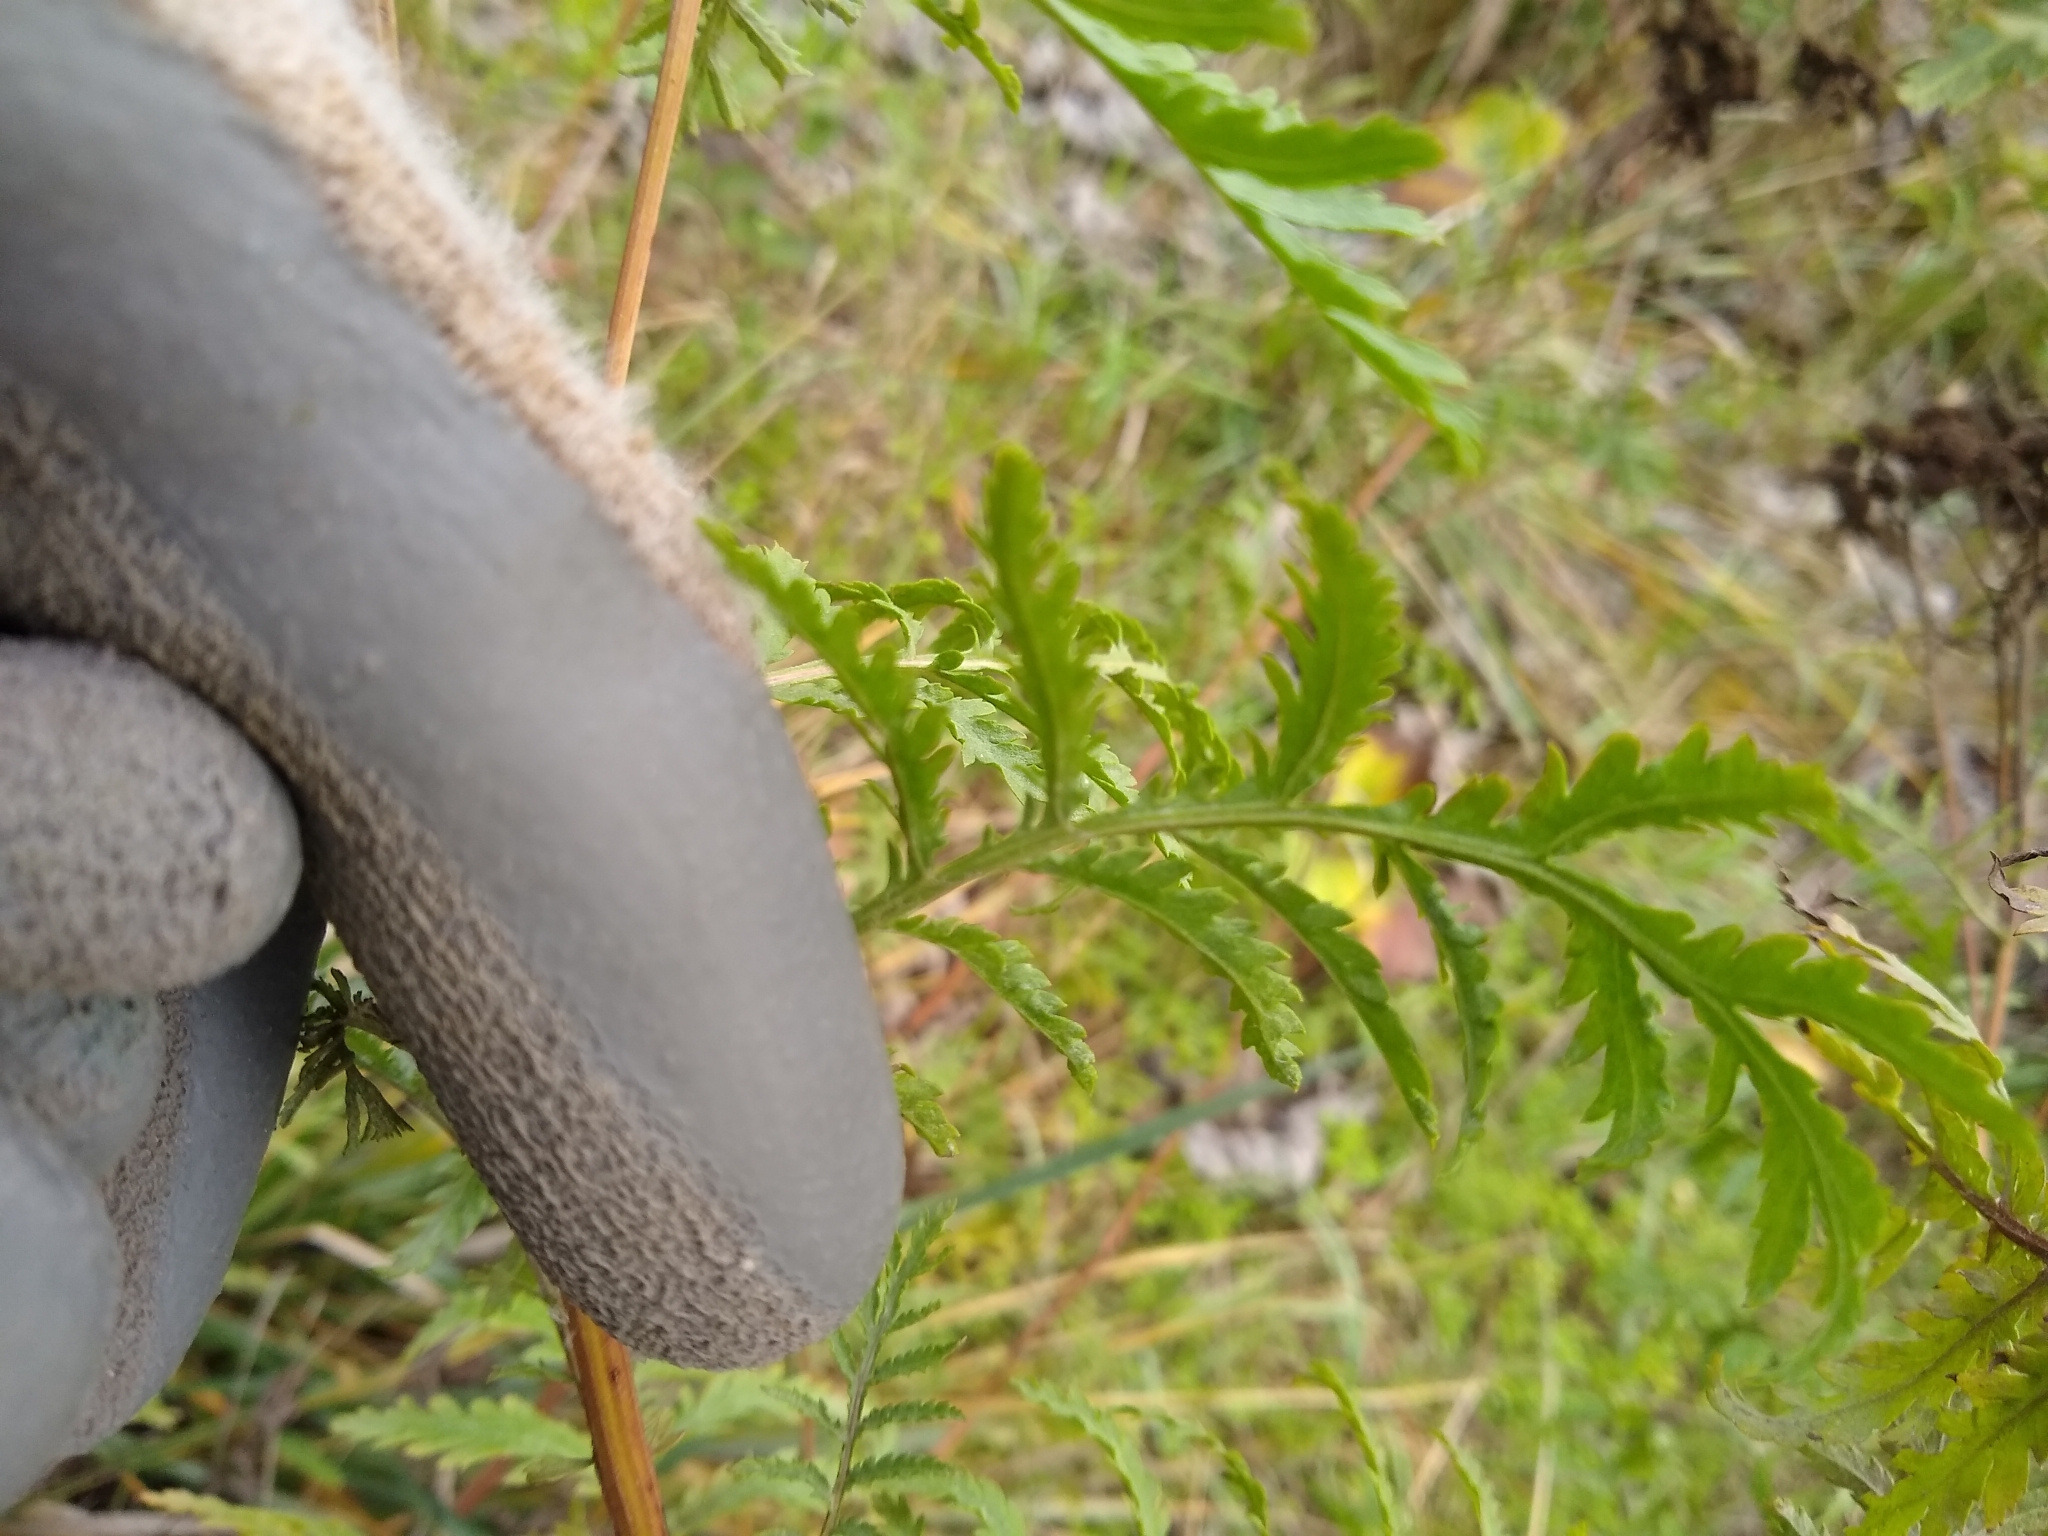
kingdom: Plantae
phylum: Tracheophyta
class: Magnoliopsida
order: Asterales
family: Asteraceae
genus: Tanacetum
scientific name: Tanacetum vulgare
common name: Common tansy
